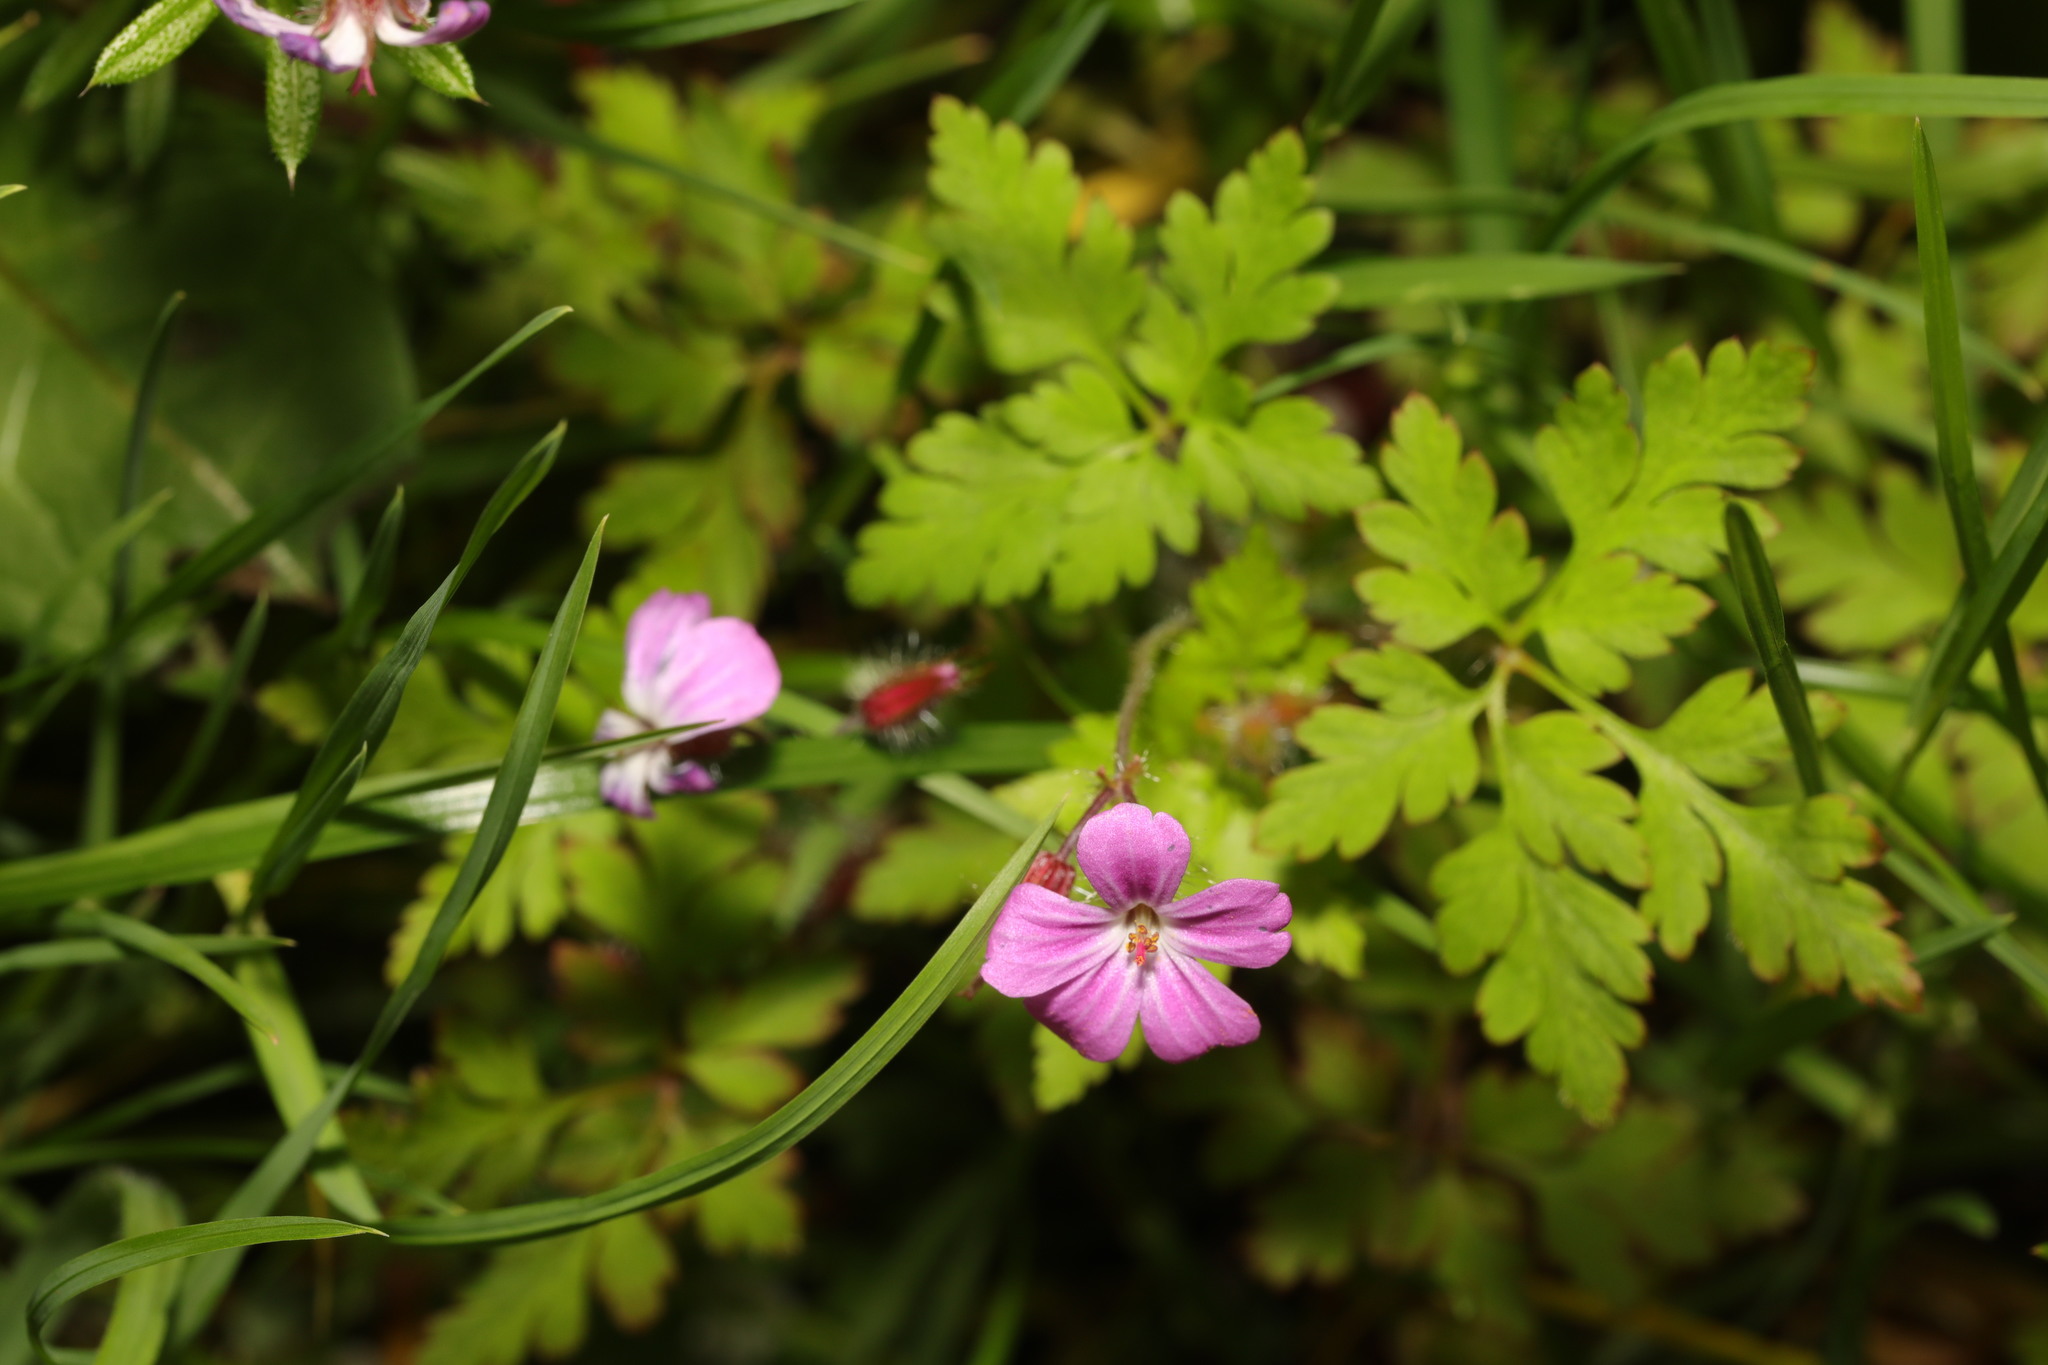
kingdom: Plantae
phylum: Tracheophyta
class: Magnoliopsida
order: Geraniales
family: Geraniaceae
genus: Geranium
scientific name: Geranium robertianum
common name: Herb-robert
